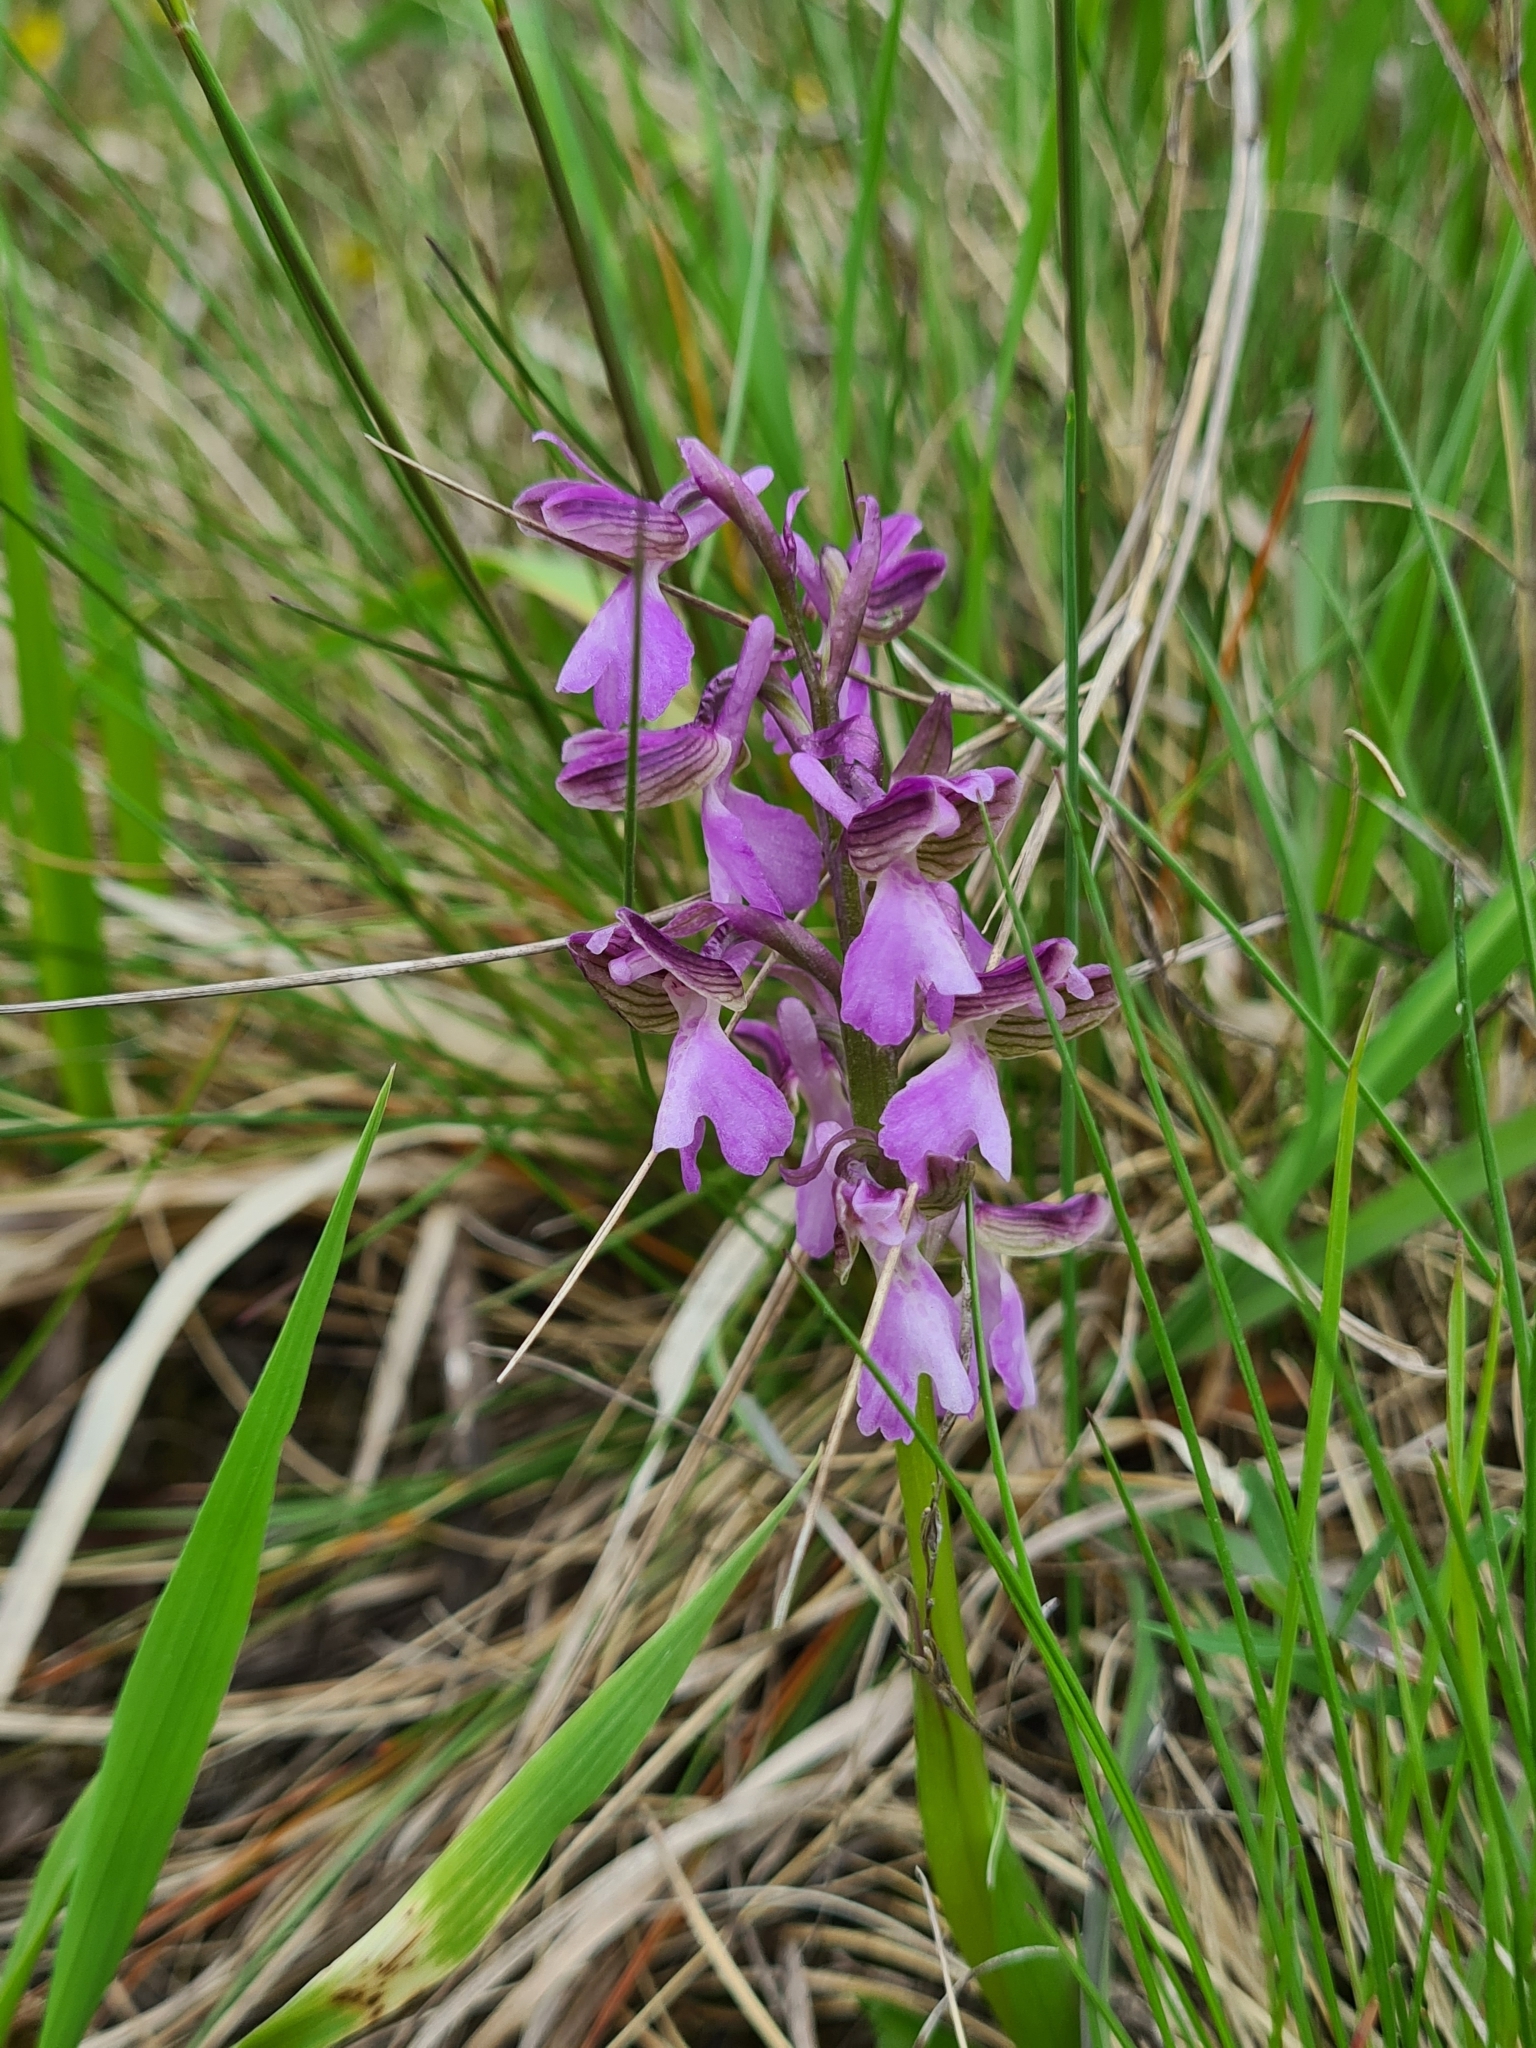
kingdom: Plantae
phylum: Tracheophyta
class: Liliopsida
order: Asparagales
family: Orchidaceae
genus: Anacamptis
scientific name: Anacamptis morio
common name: Green-winged orchid
